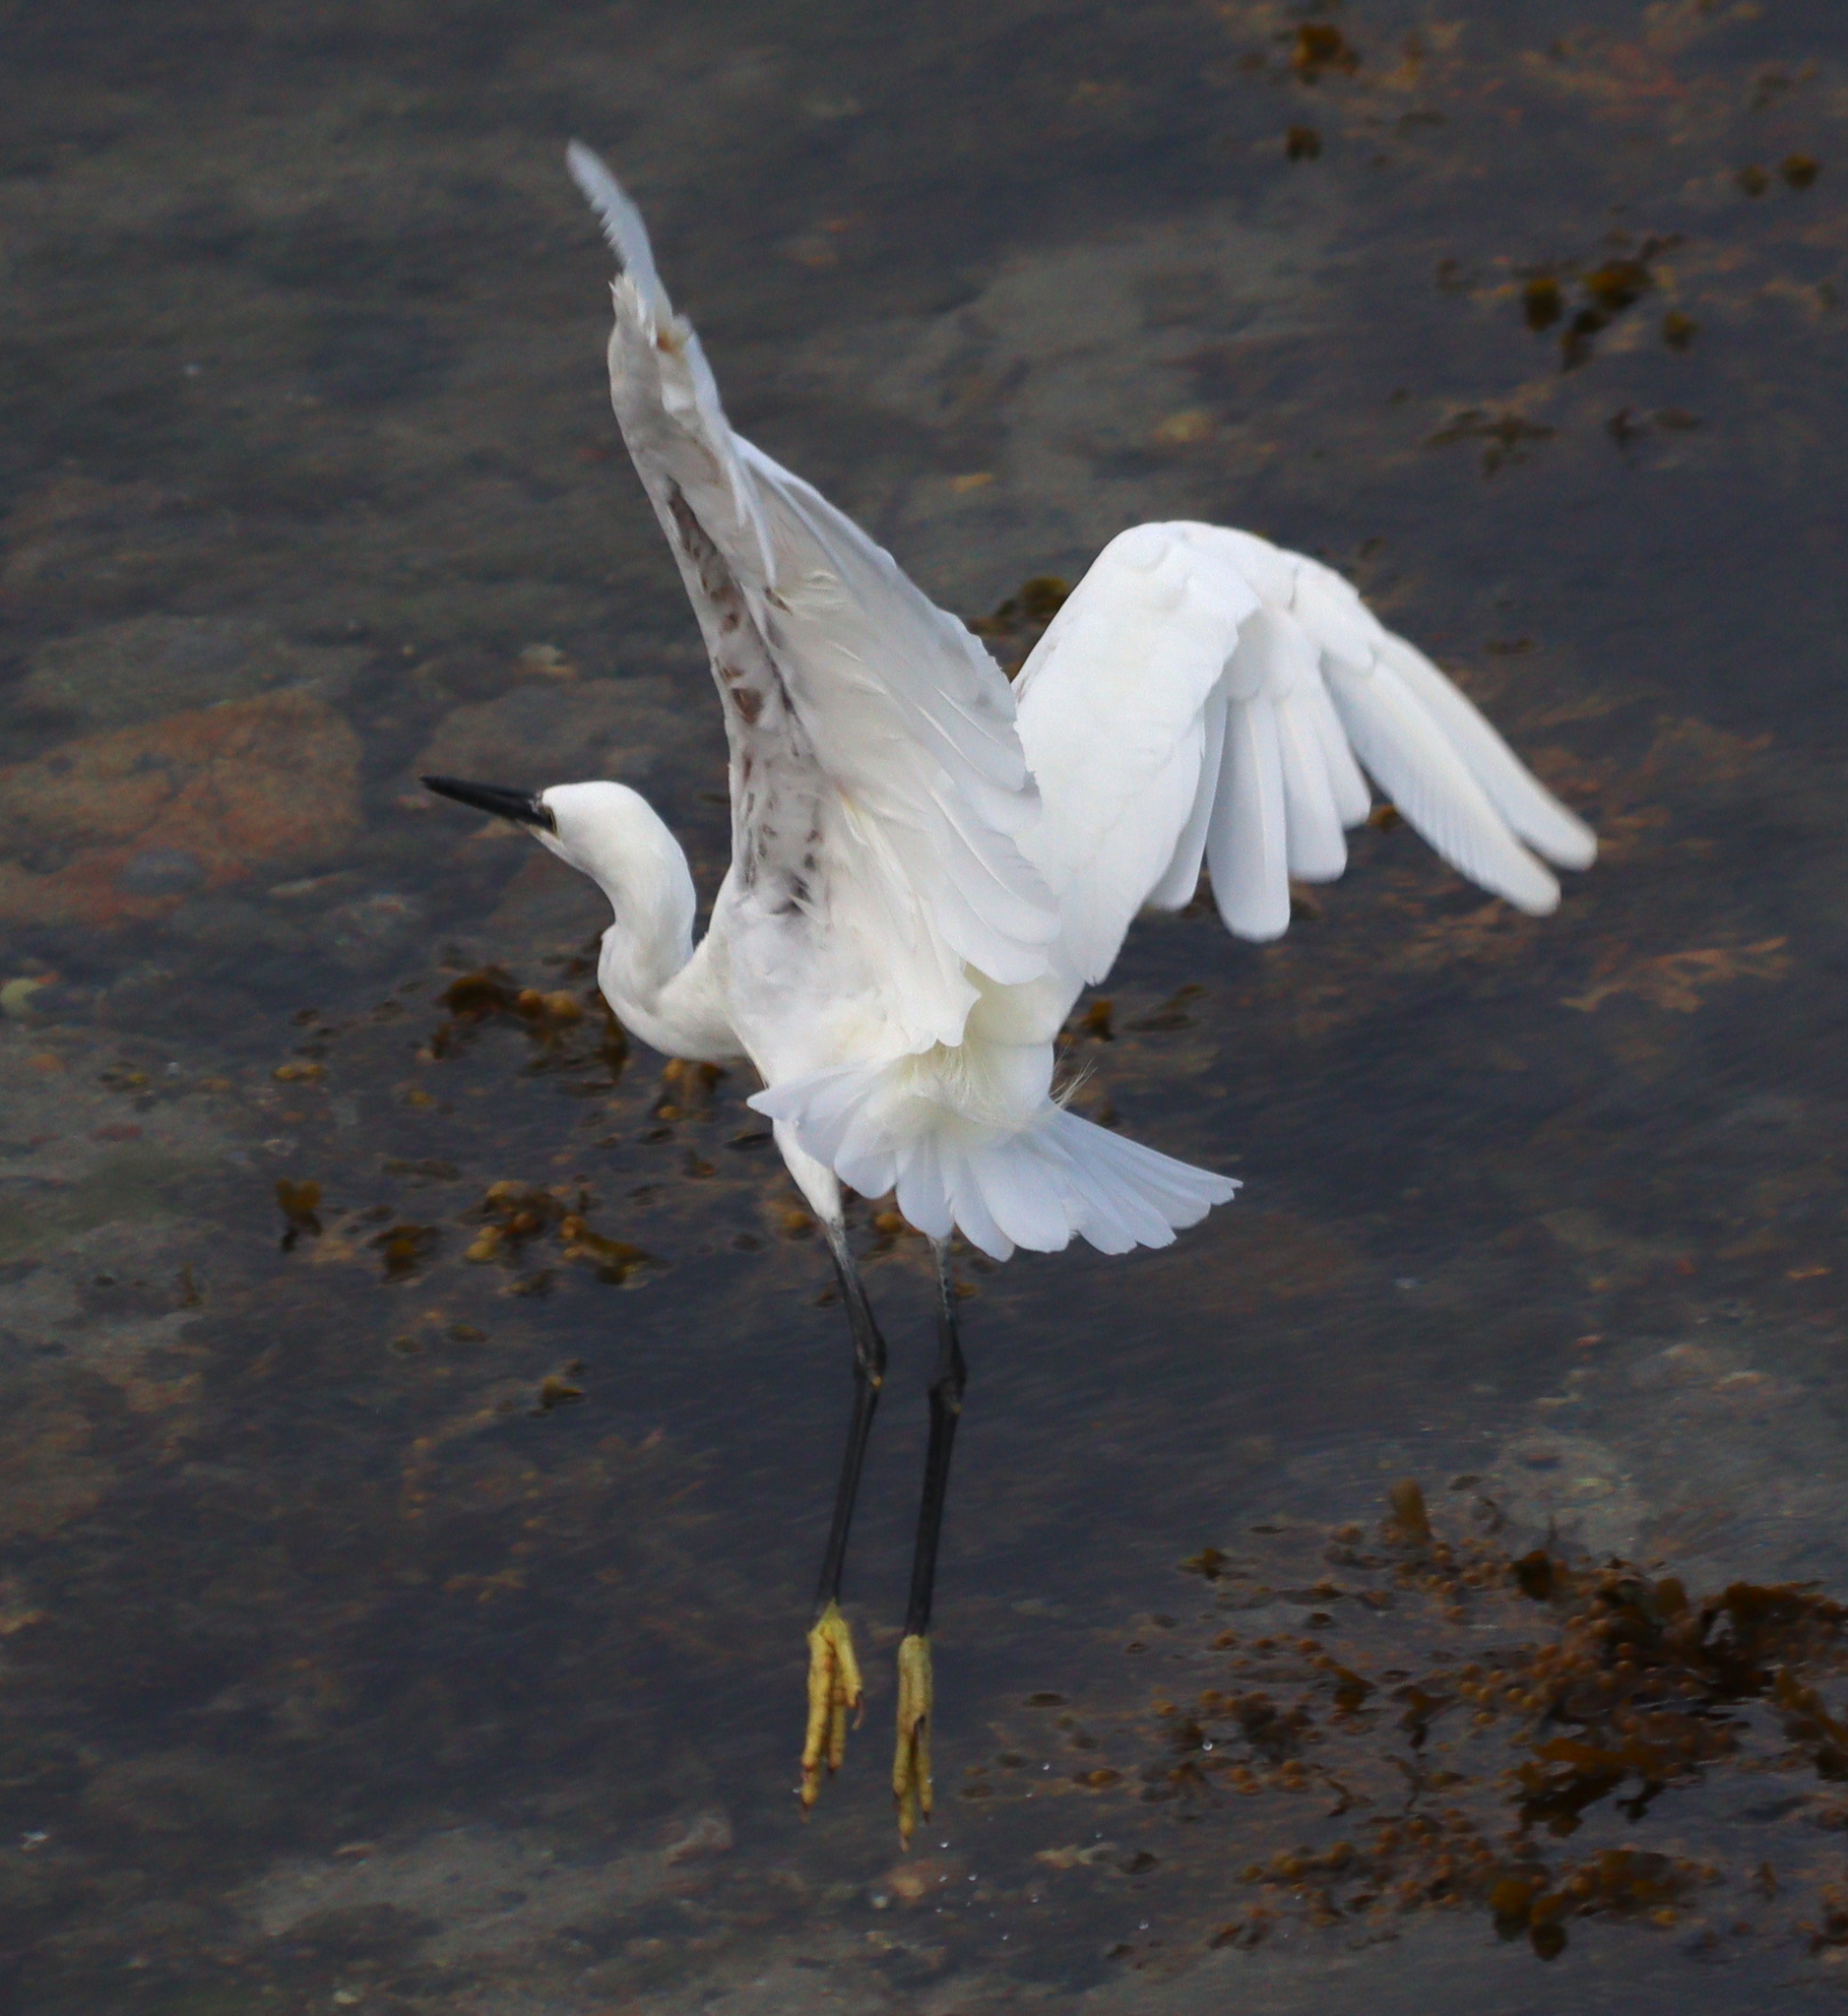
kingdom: Animalia
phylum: Chordata
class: Aves
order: Pelecaniformes
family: Ardeidae
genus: Egretta
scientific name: Egretta garzetta
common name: Little egret
